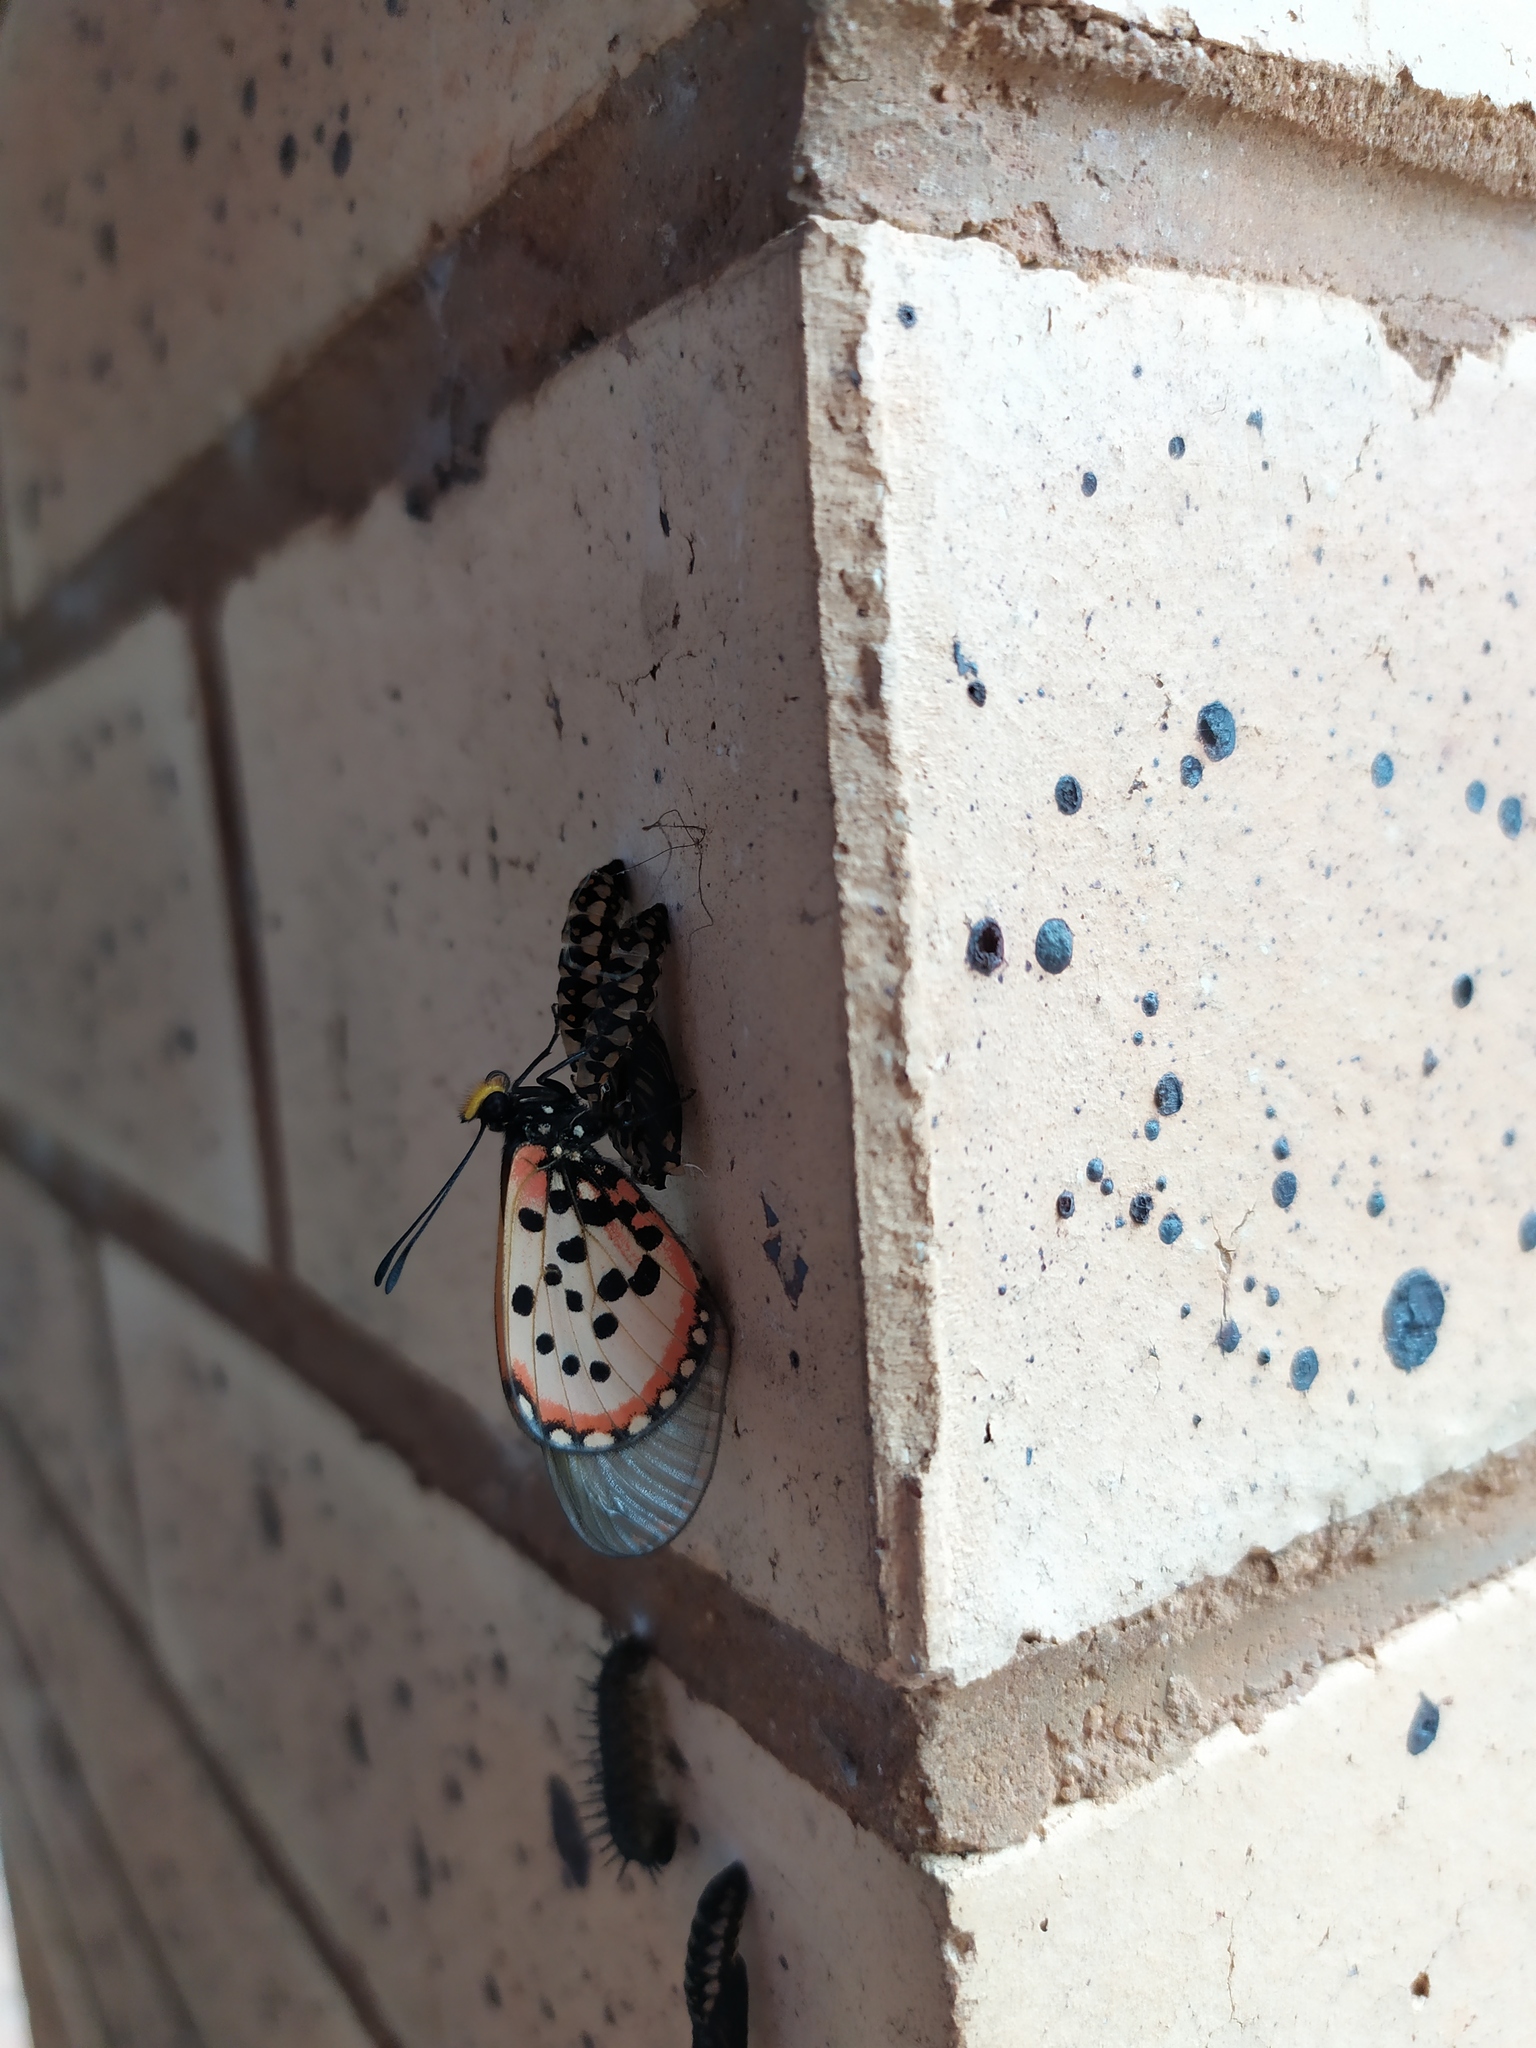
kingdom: Animalia
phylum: Arthropoda
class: Insecta
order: Lepidoptera
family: Nymphalidae
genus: Acraea
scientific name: Acraea horta
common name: Garden acraea
